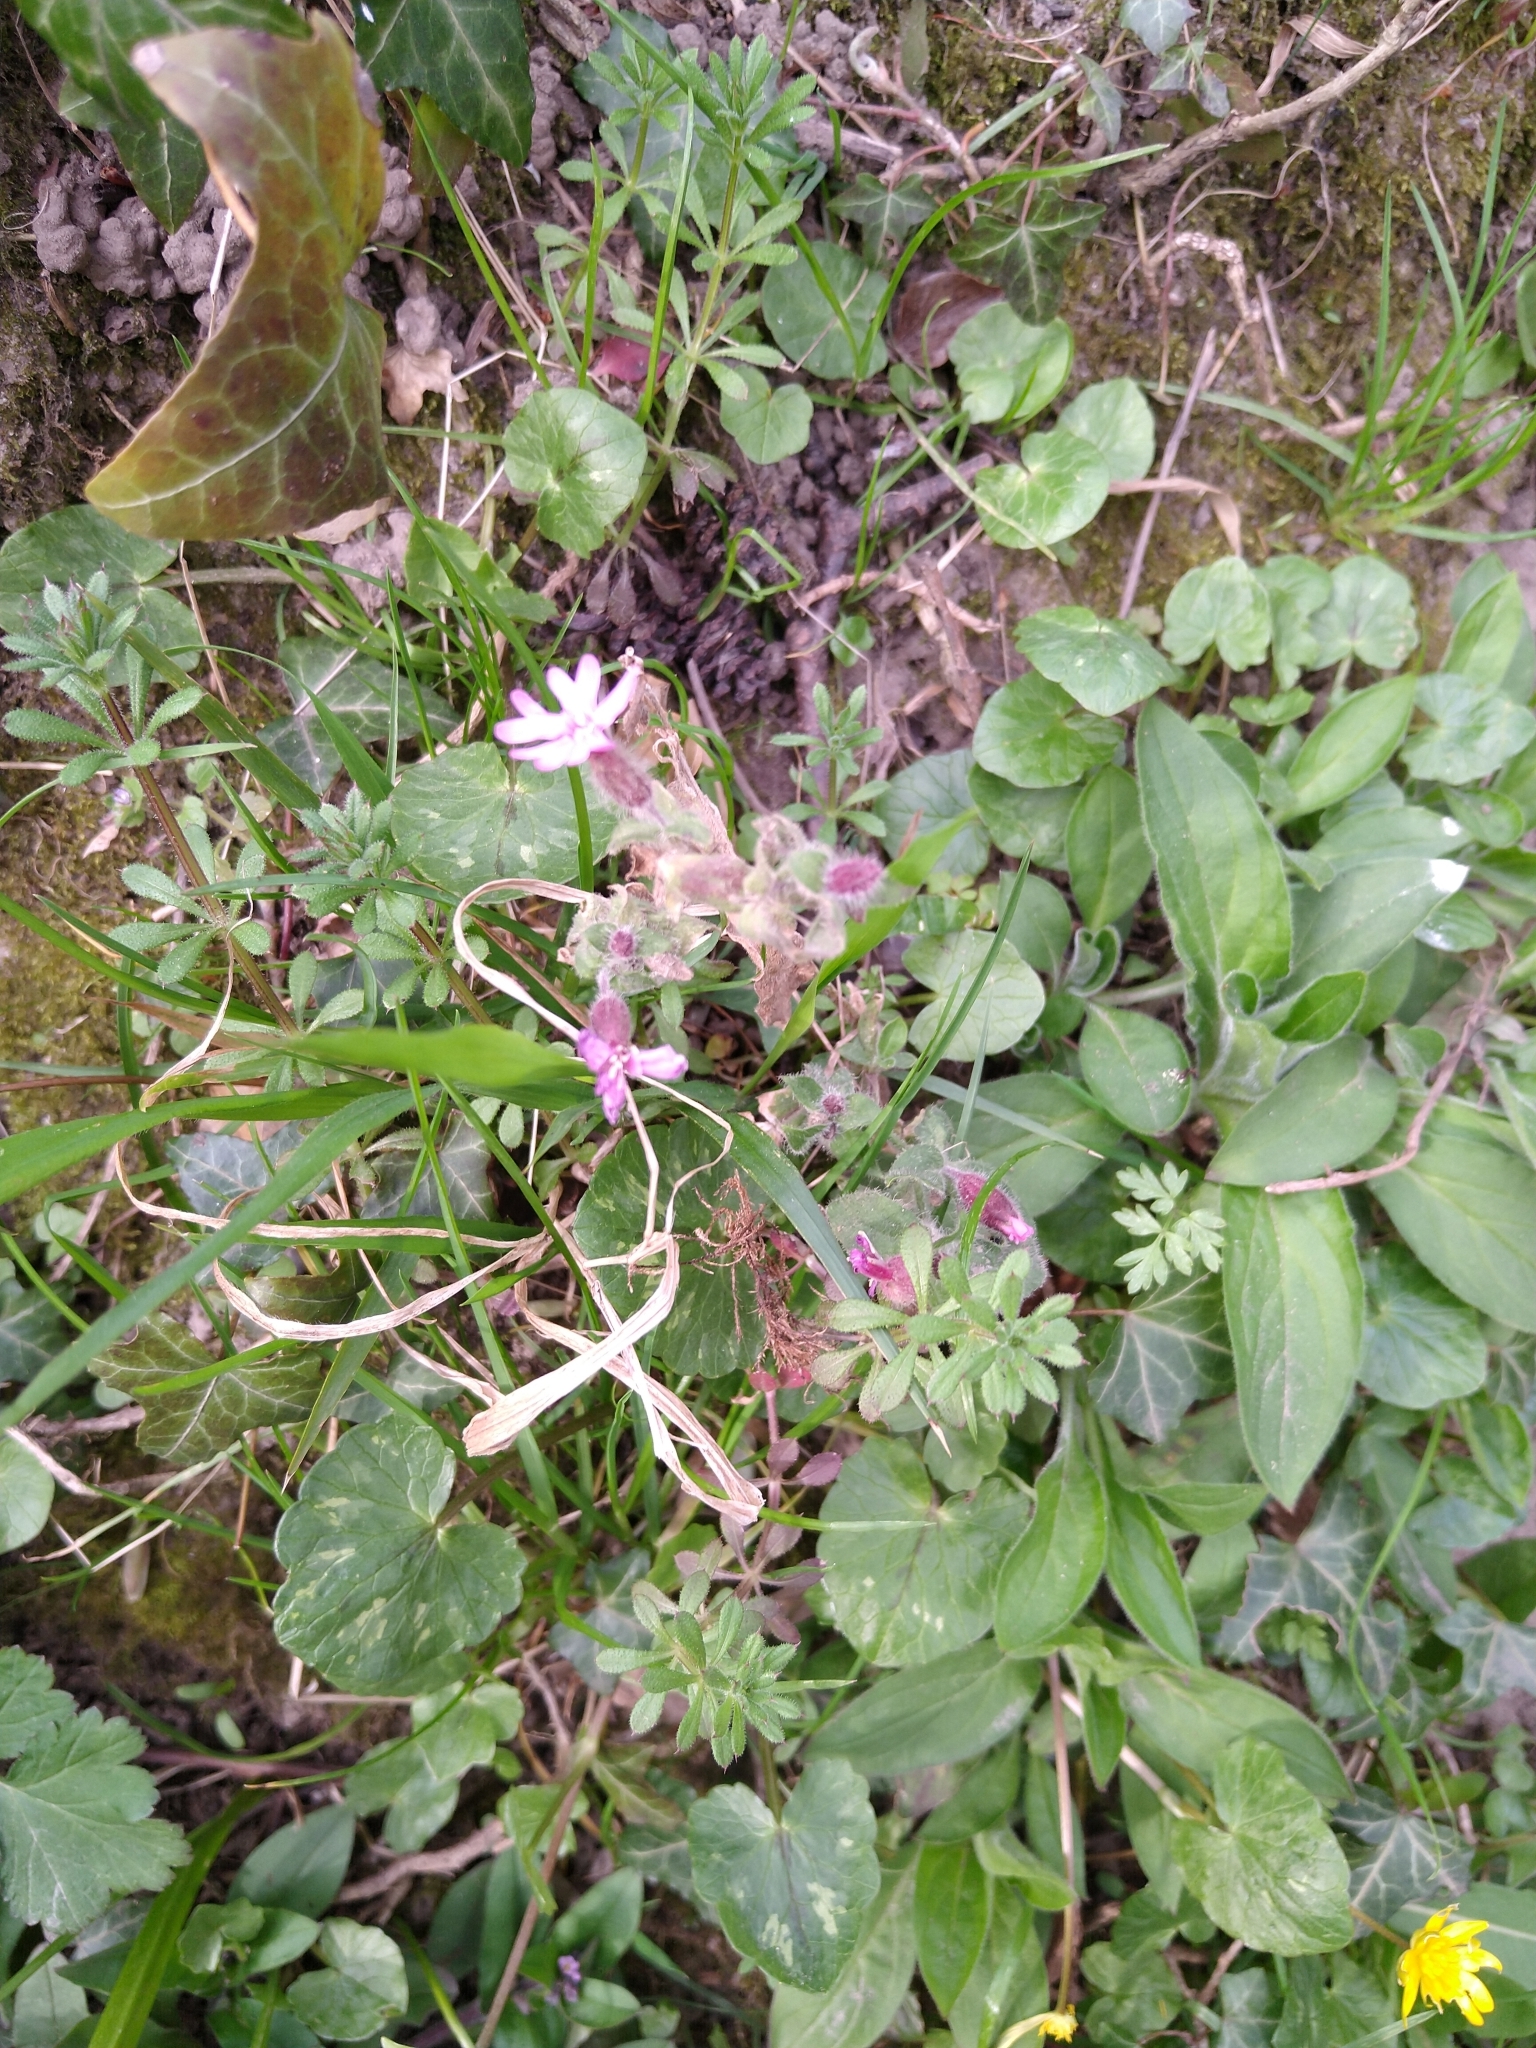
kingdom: Plantae
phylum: Tracheophyta
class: Magnoliopsida
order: Caryophyllales
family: Caryophyllaceae
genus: Silene
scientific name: Silene dioica
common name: Red campion
